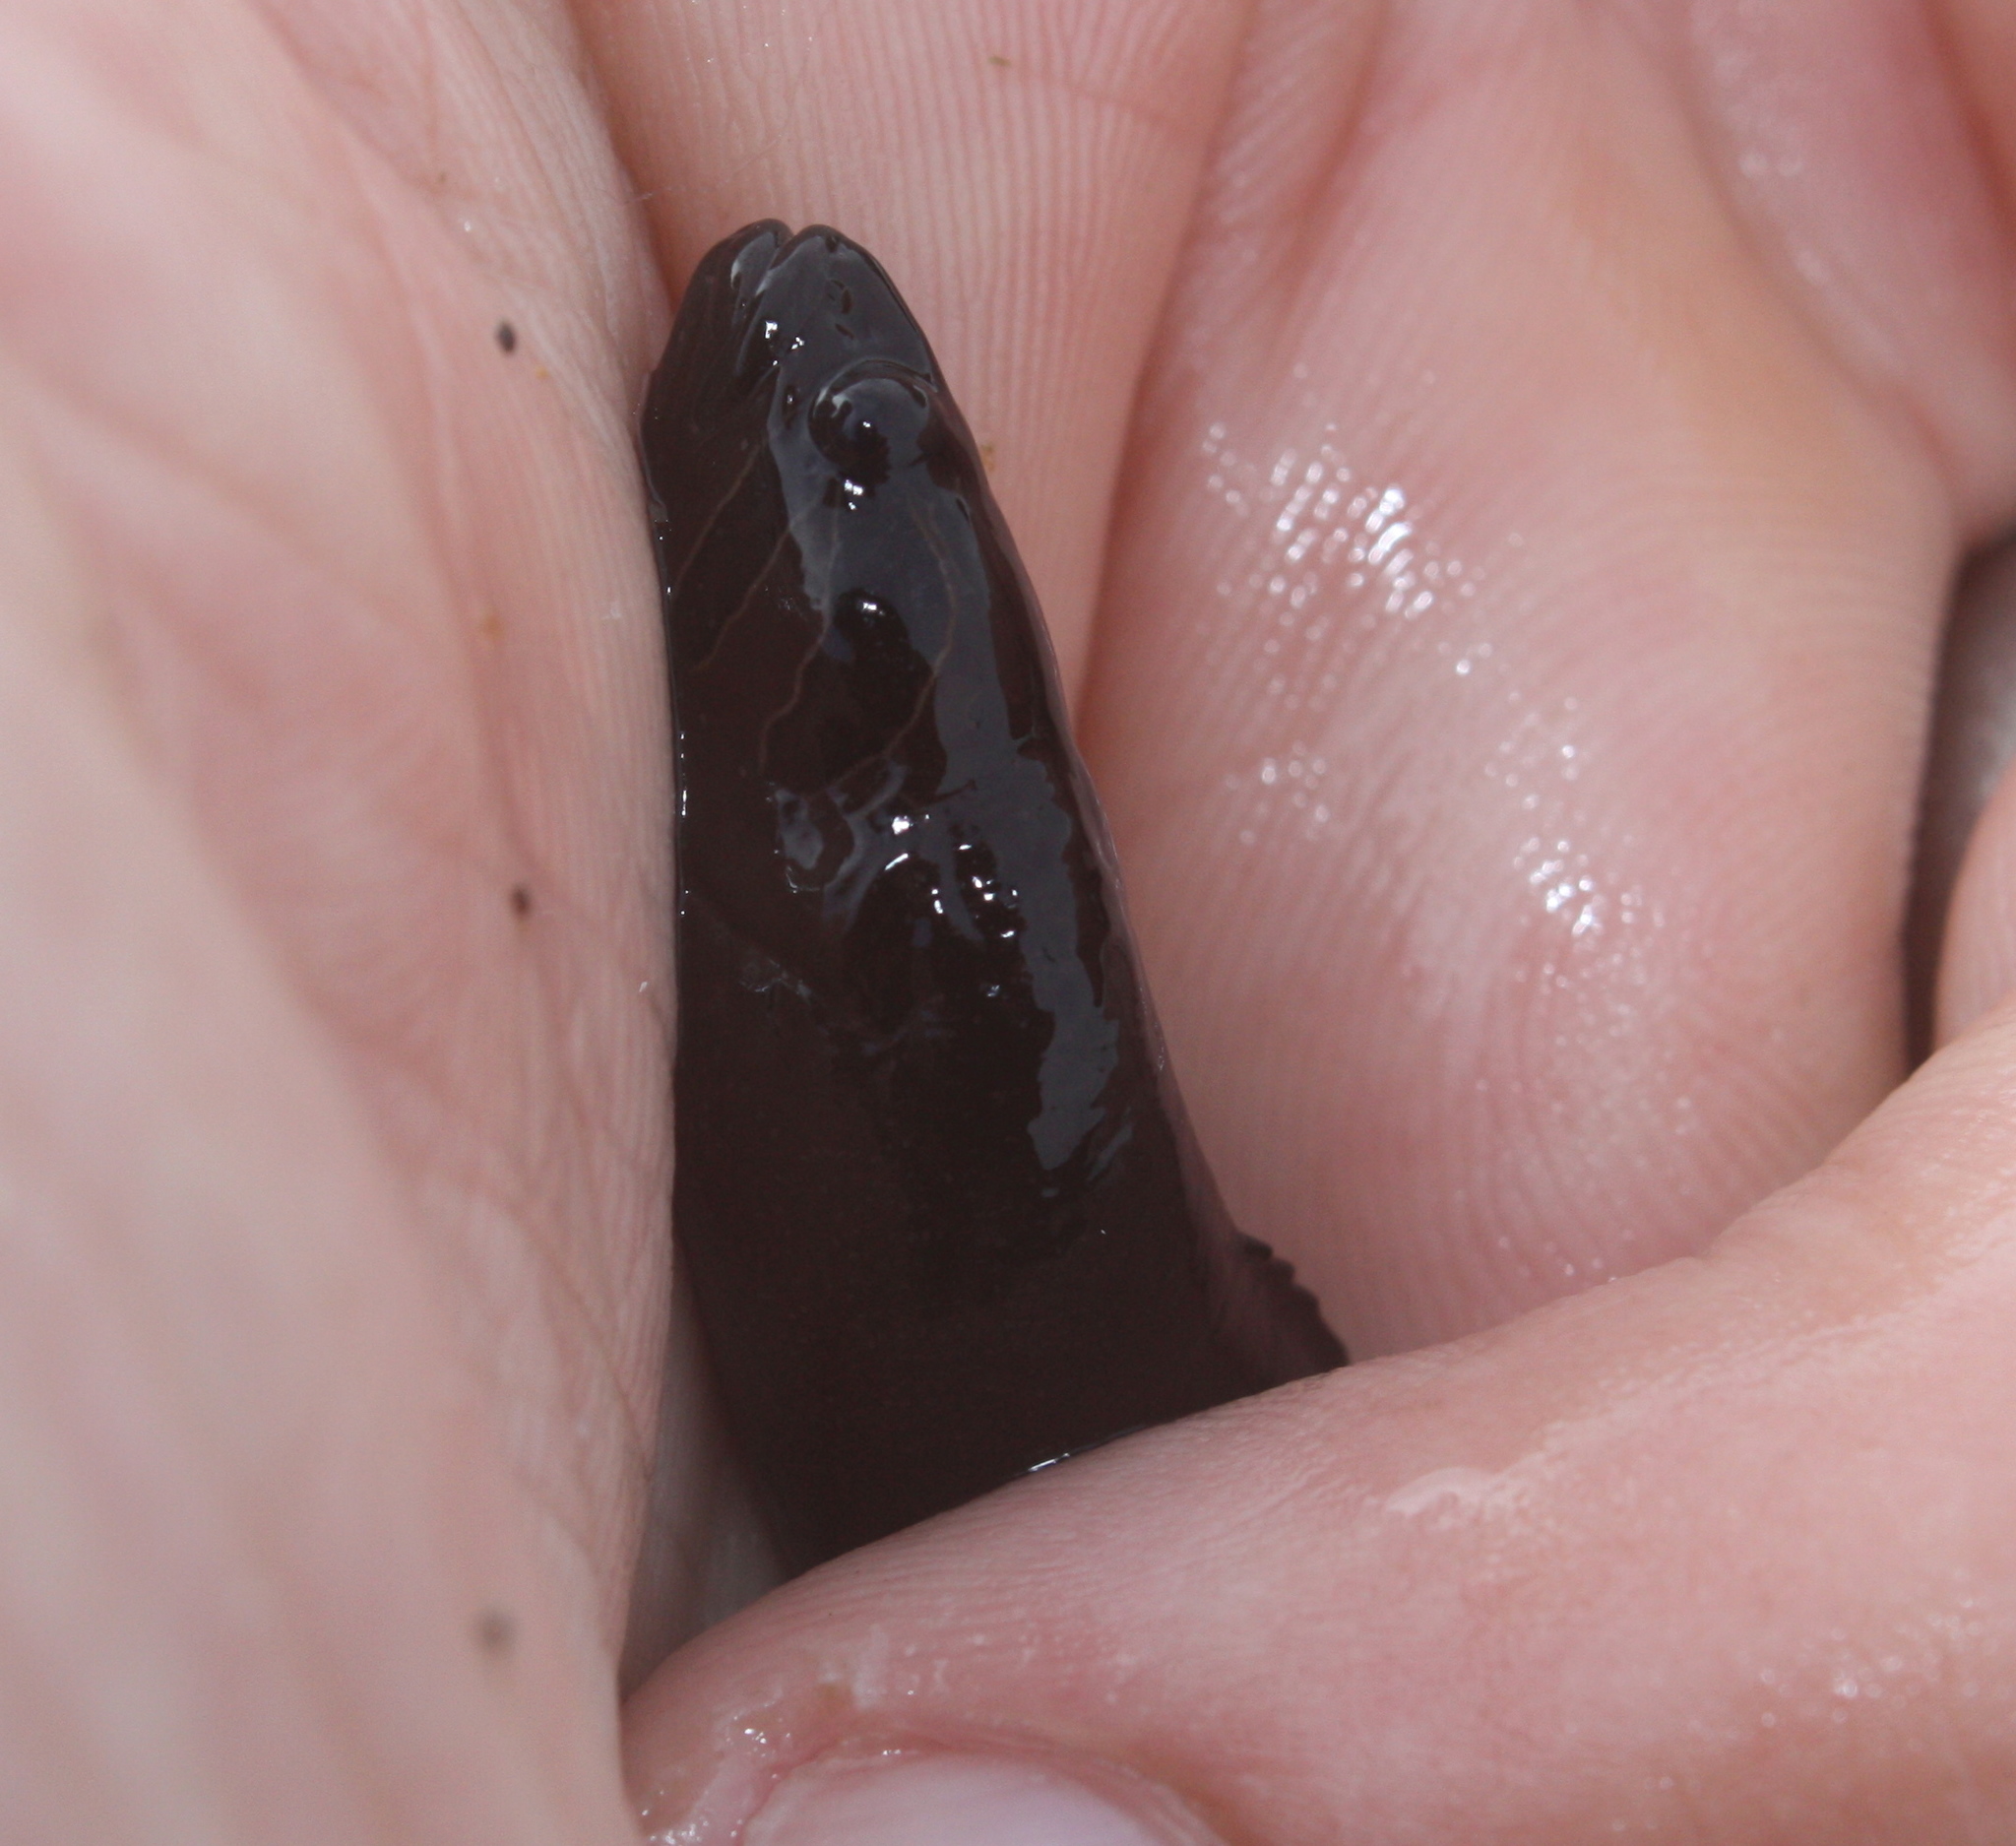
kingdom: Animalia
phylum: Chordata
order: Perciformes
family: Stichaeidae
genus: Xiphister
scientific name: Xiphister atropurpureus
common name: Black prickleback
